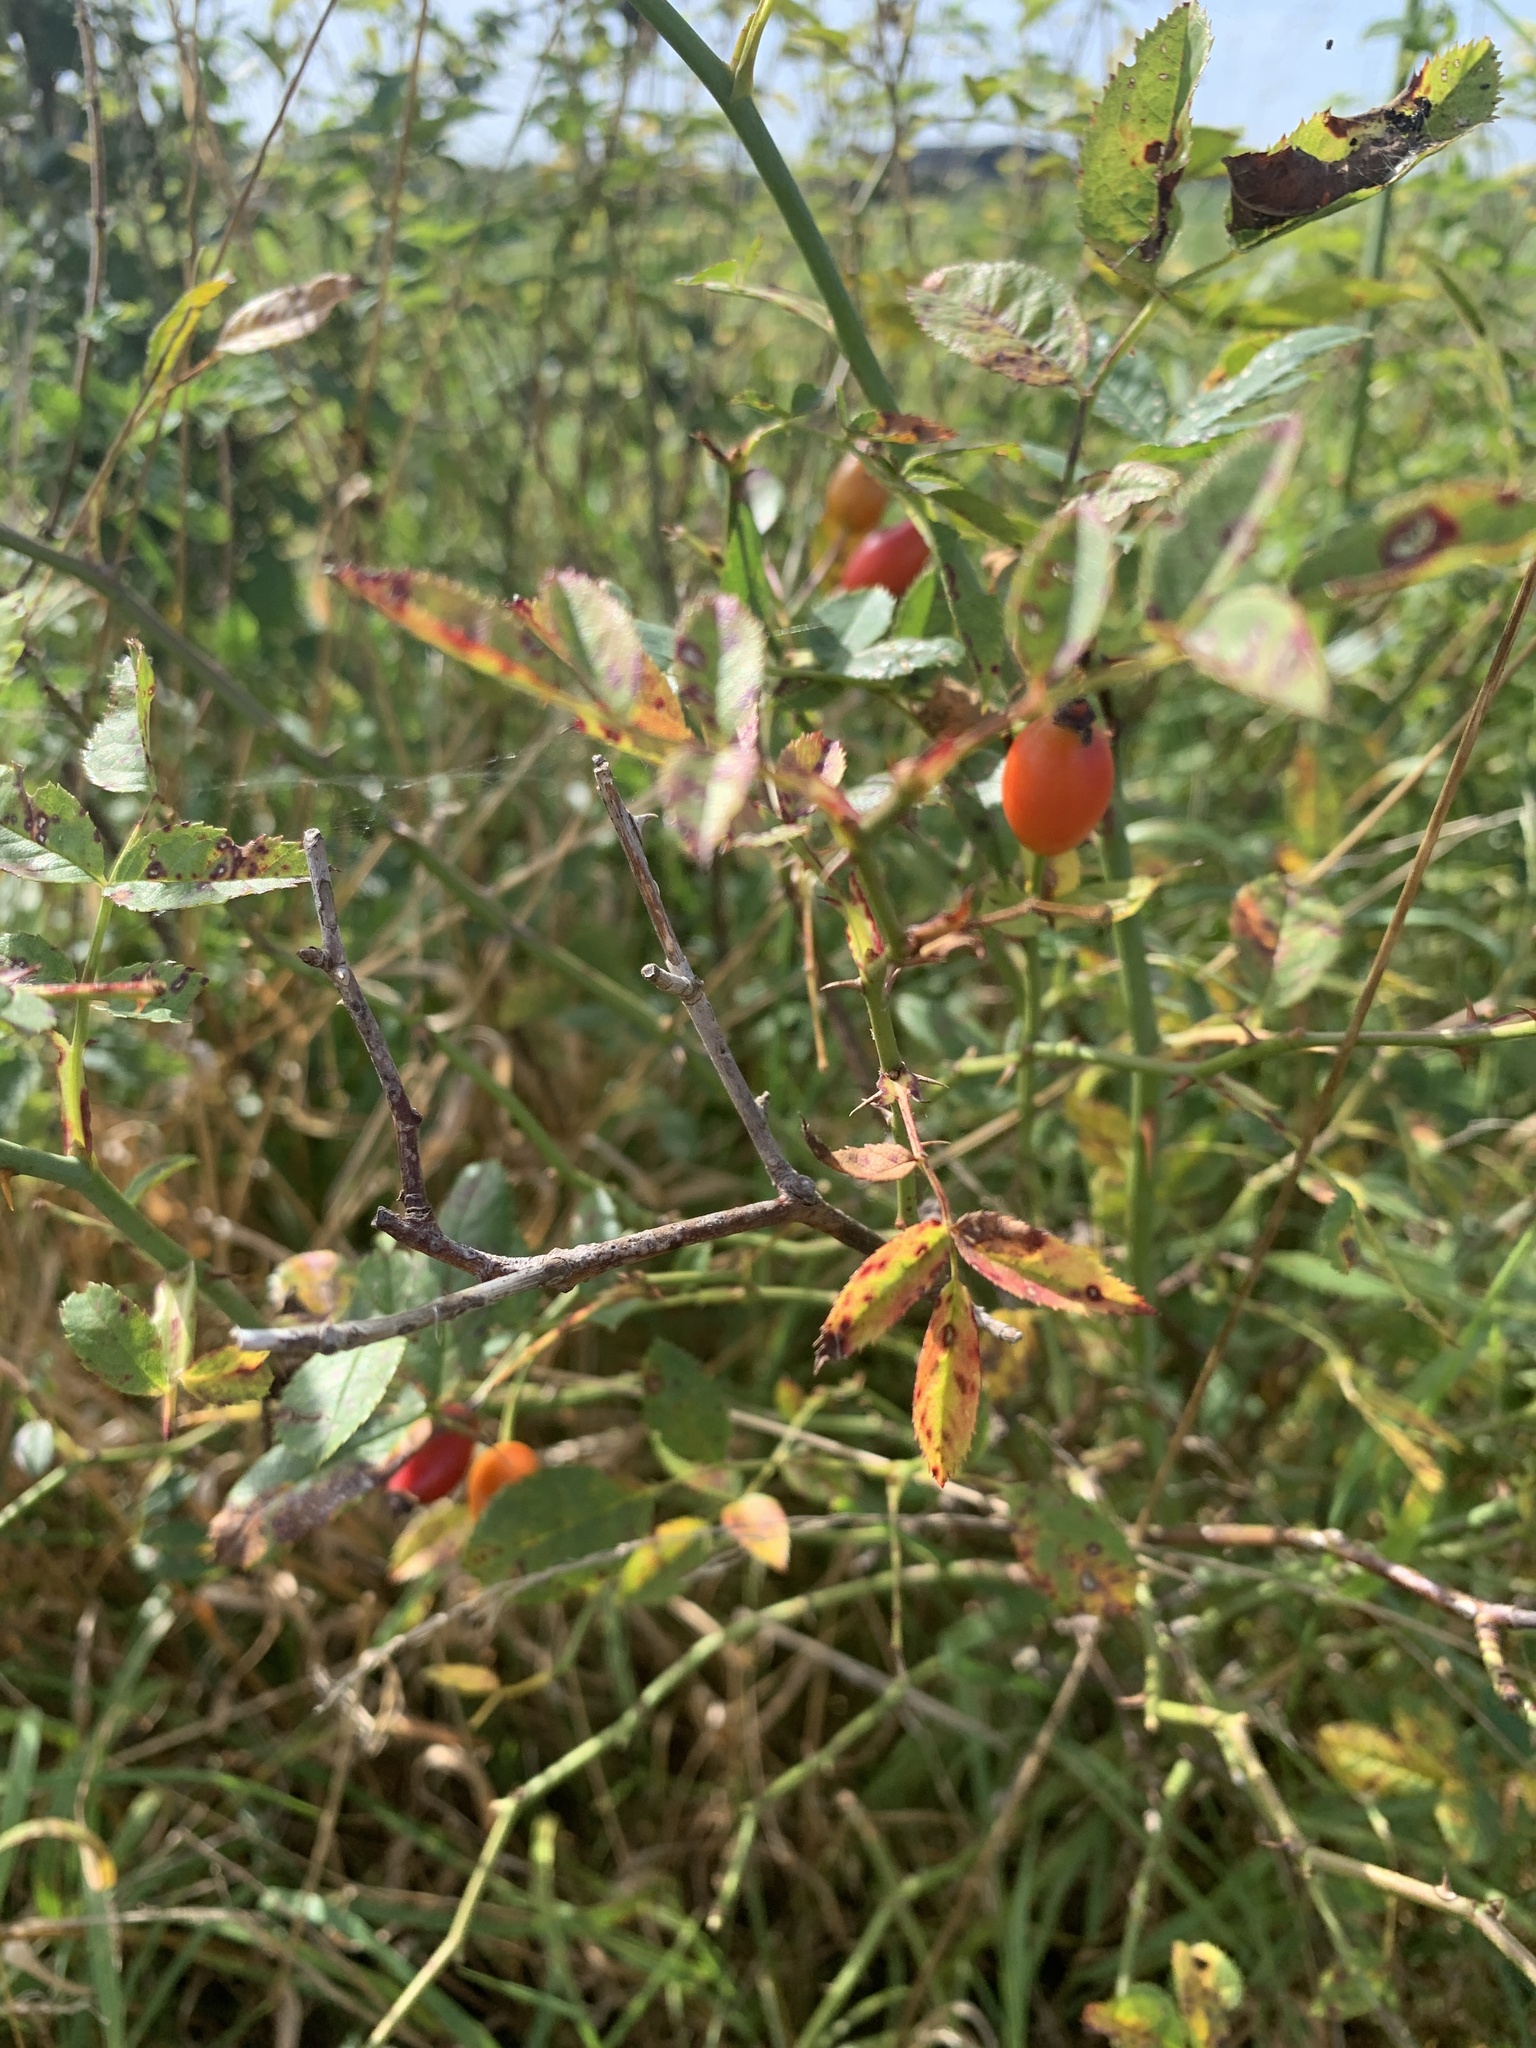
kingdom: Plantae
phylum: Tracheophyta
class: Magnoliopsida
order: Rosales
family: Rosaceae
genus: Rosa
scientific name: Rosa canina
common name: Dog rose
